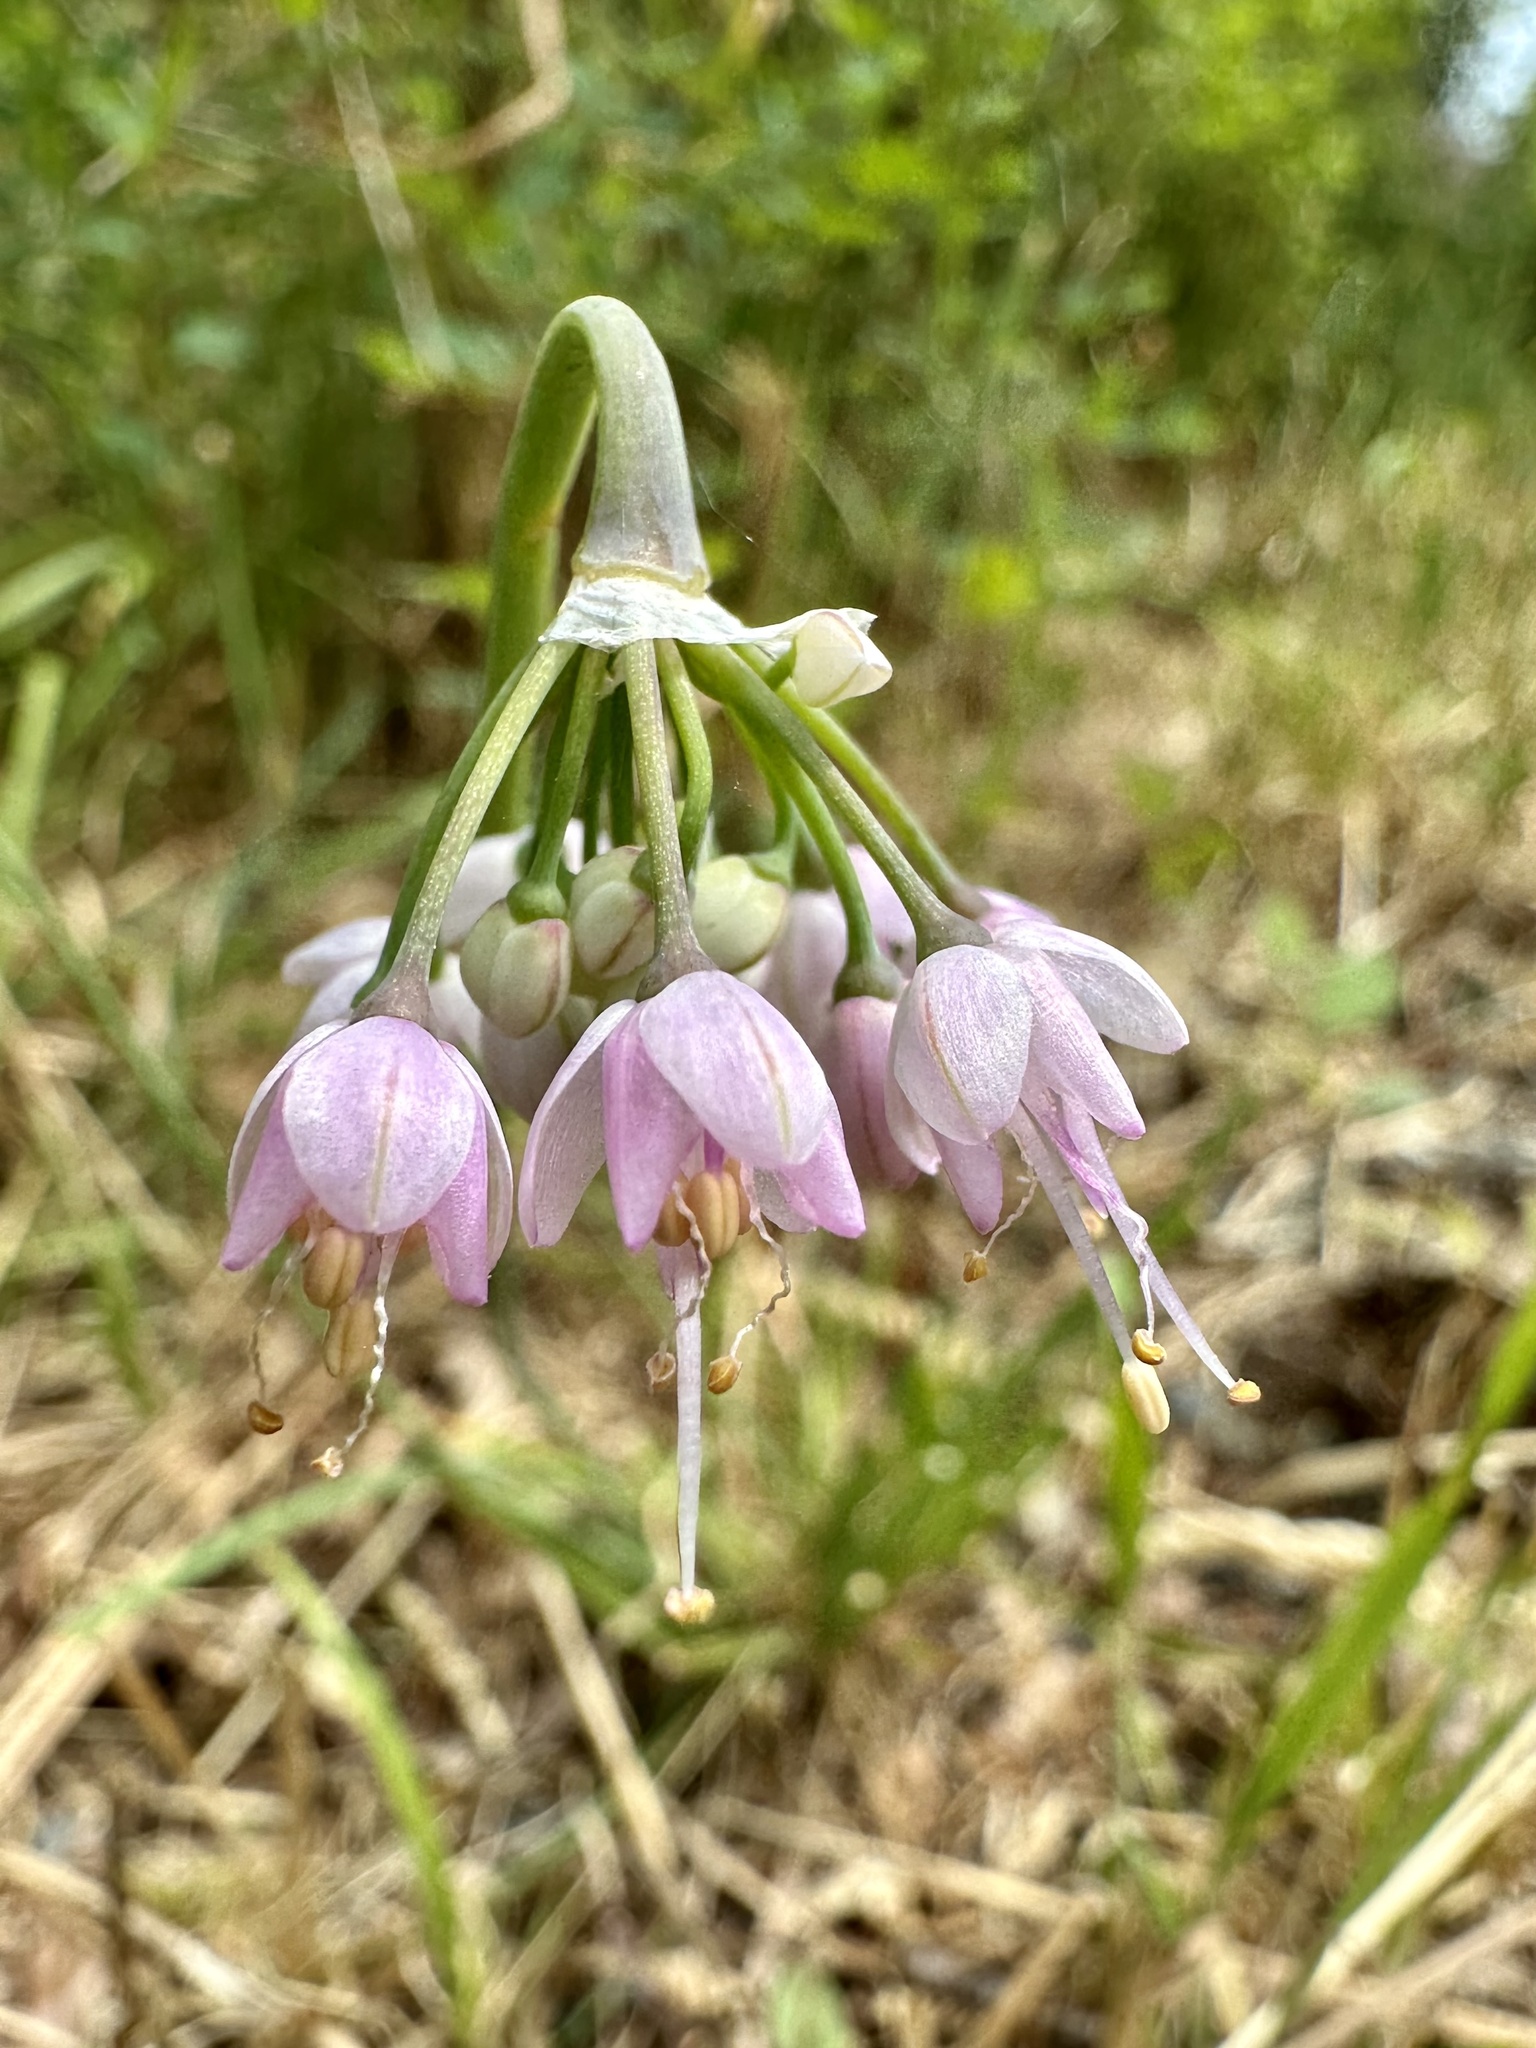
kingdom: Plantae
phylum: Tracheophyta
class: Liliopsida
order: Asparagales
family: Amaryllidaceae
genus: Allium
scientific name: Allium cernuum
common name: Nodding onion
